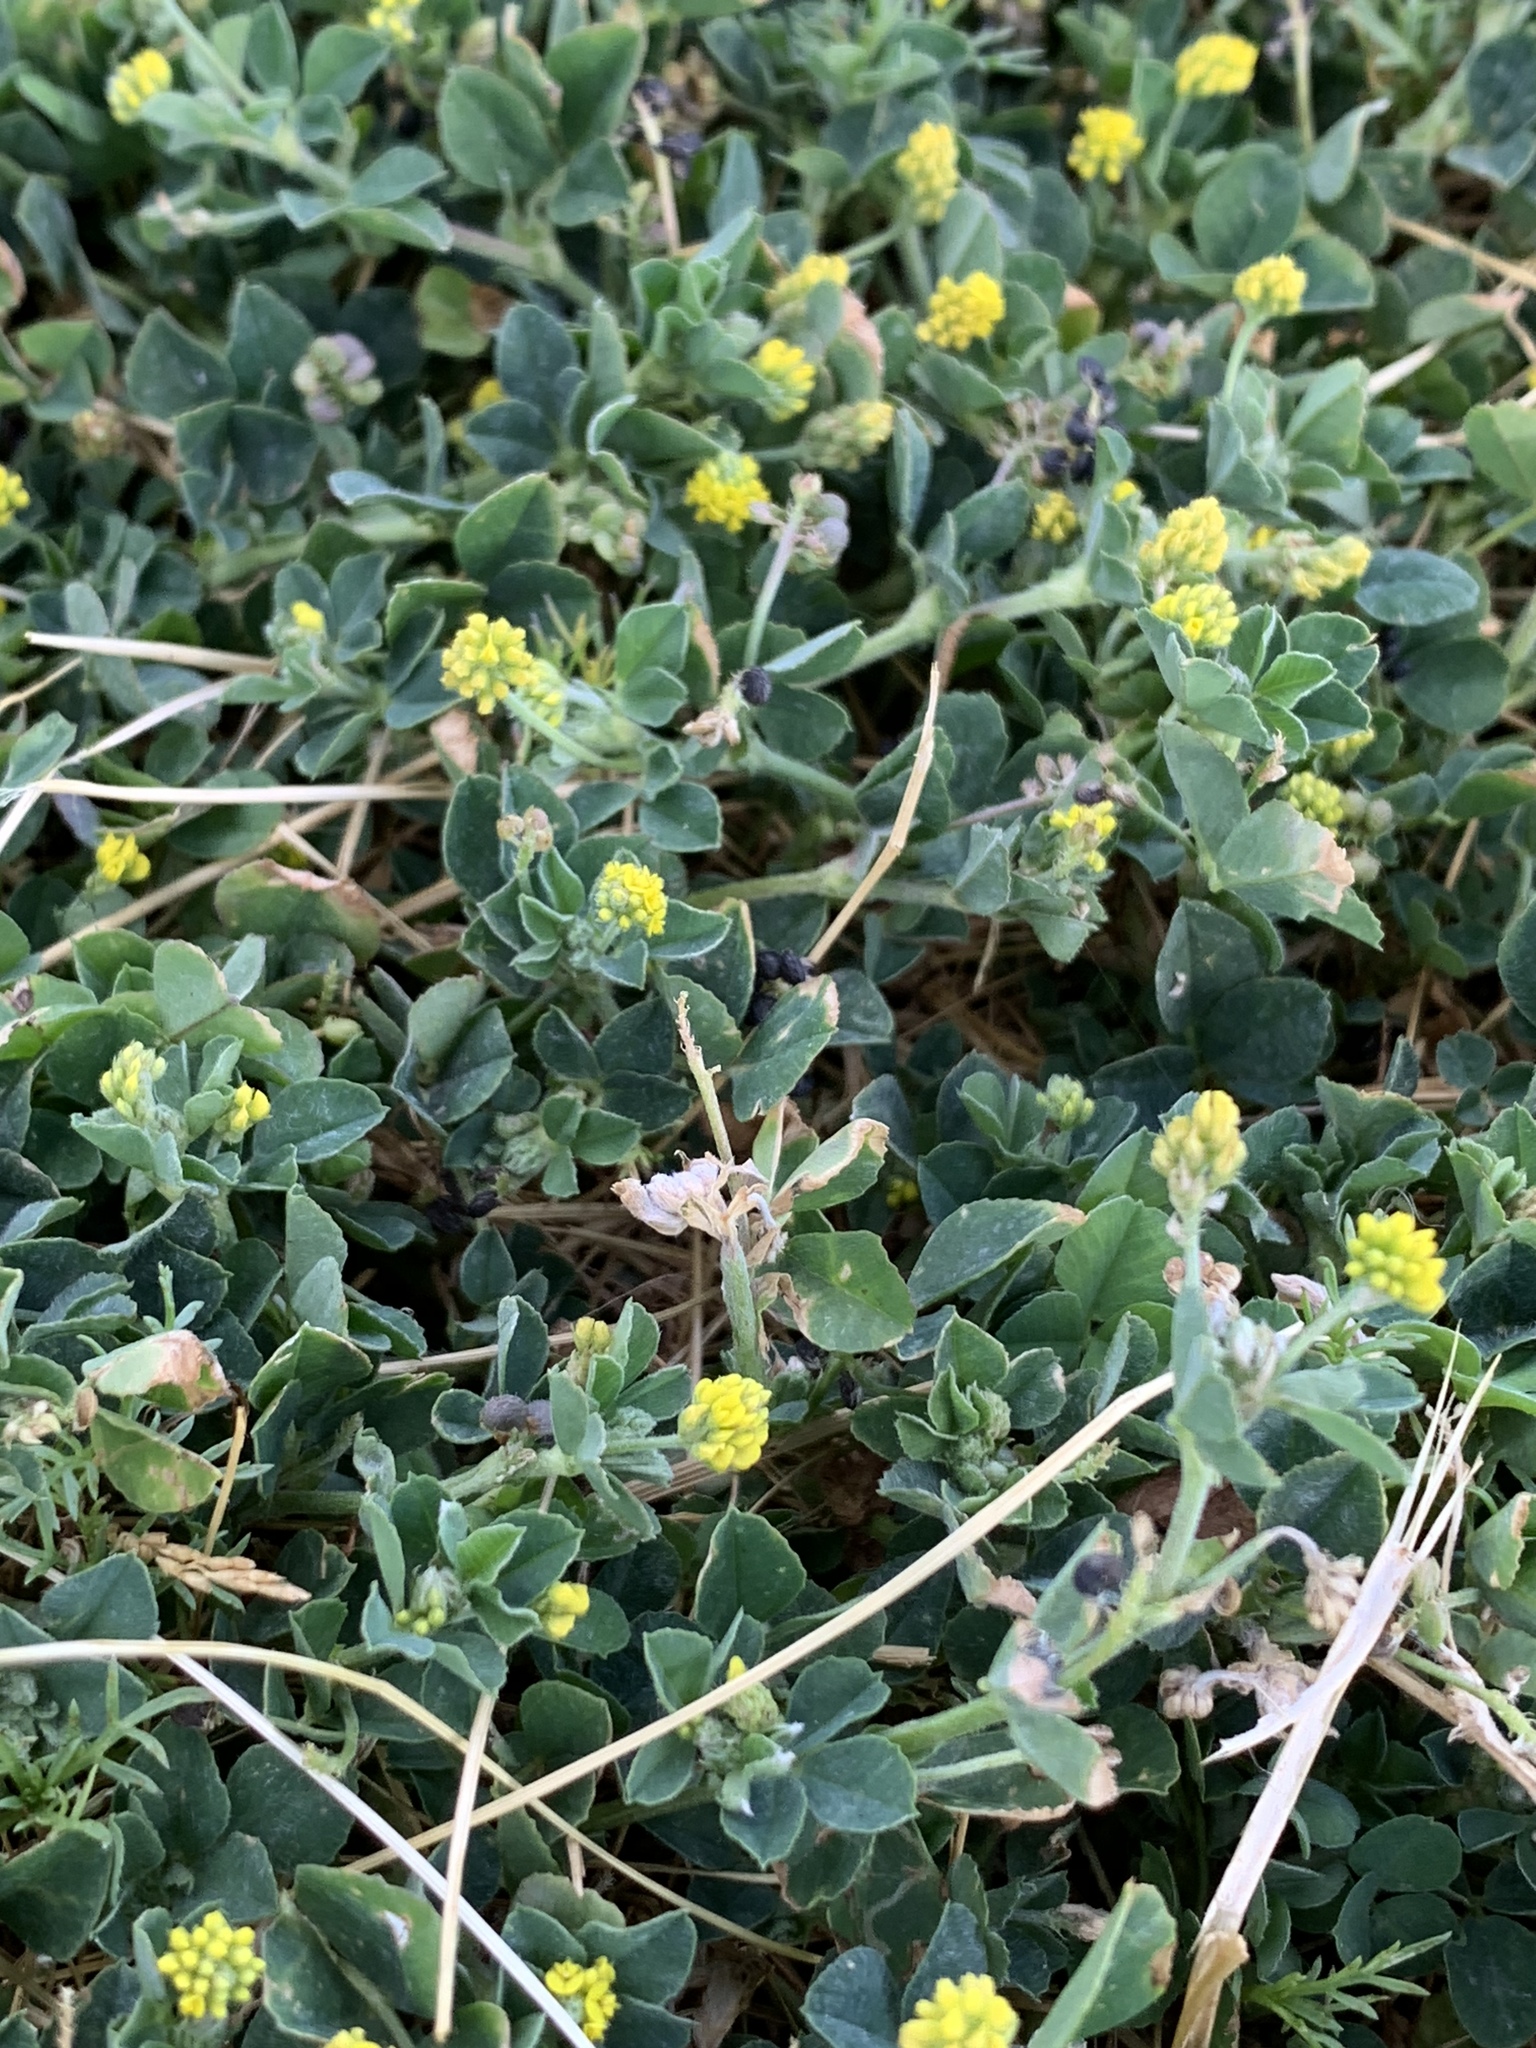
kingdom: Plantae
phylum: Tracheophyta
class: Magnoliopsida
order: Fabales
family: Fabaceae
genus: Medicago
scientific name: Medicago lupulina
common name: Black medick
